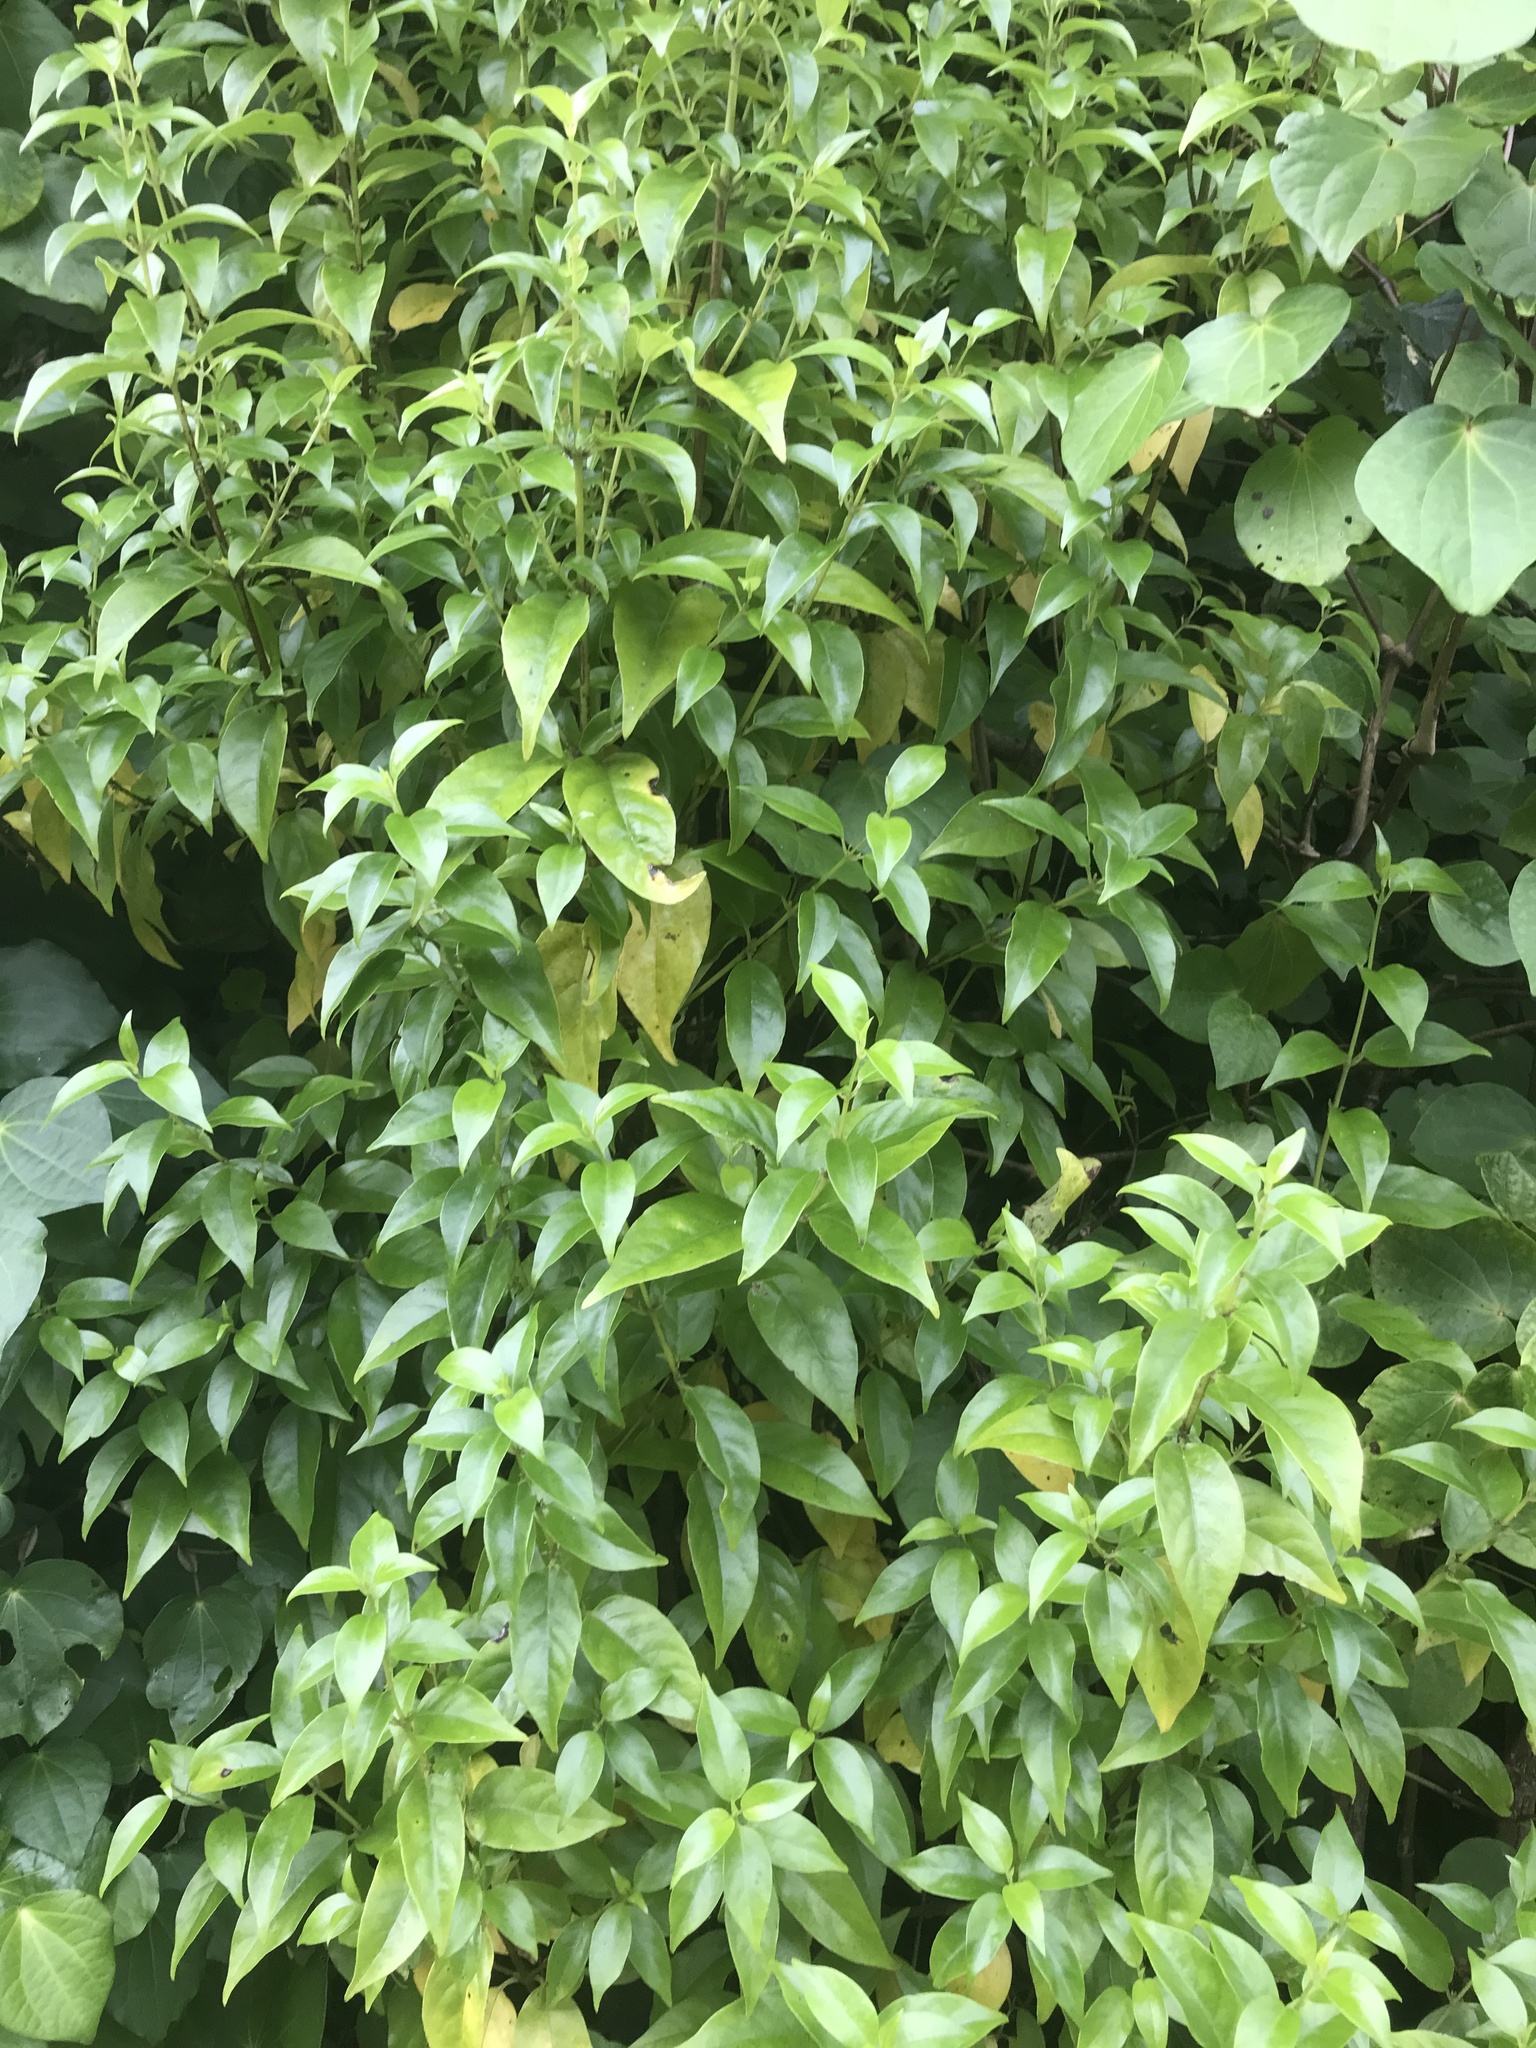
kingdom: Plantae
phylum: Tracheophyta
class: Magnoliopsida
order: Gentianales
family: Loganiaceae
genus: Geniostoma
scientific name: Geniostoma ligustrifolium
